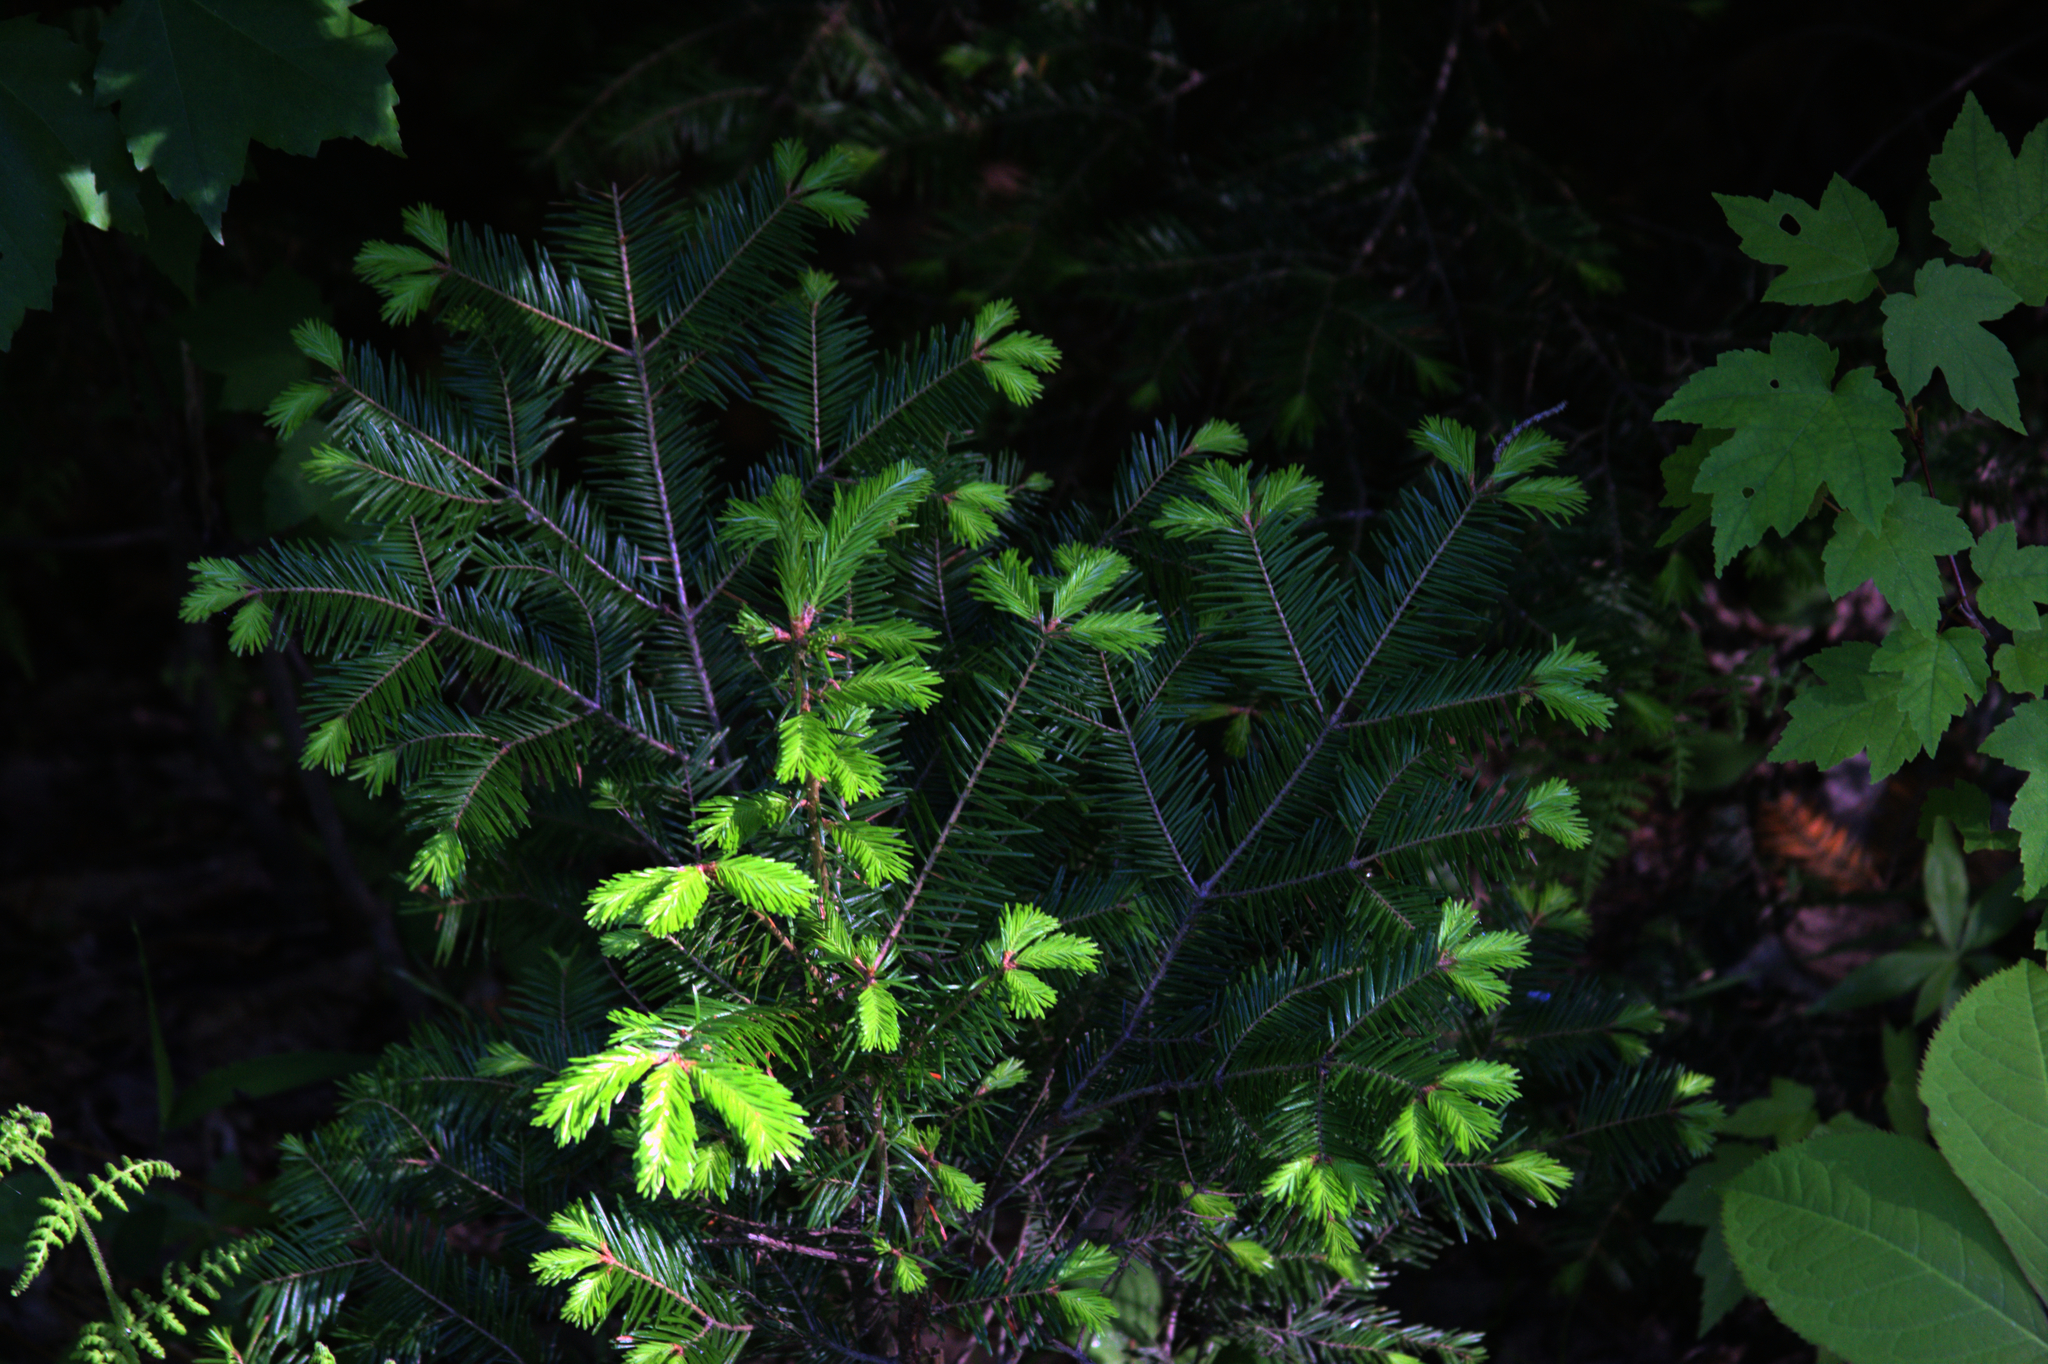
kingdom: Plantae
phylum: Tracheophyta
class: Pinopsida
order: Pinales
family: Pinaceae
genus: Abies
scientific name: Abies balsamea
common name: Balsam fir
